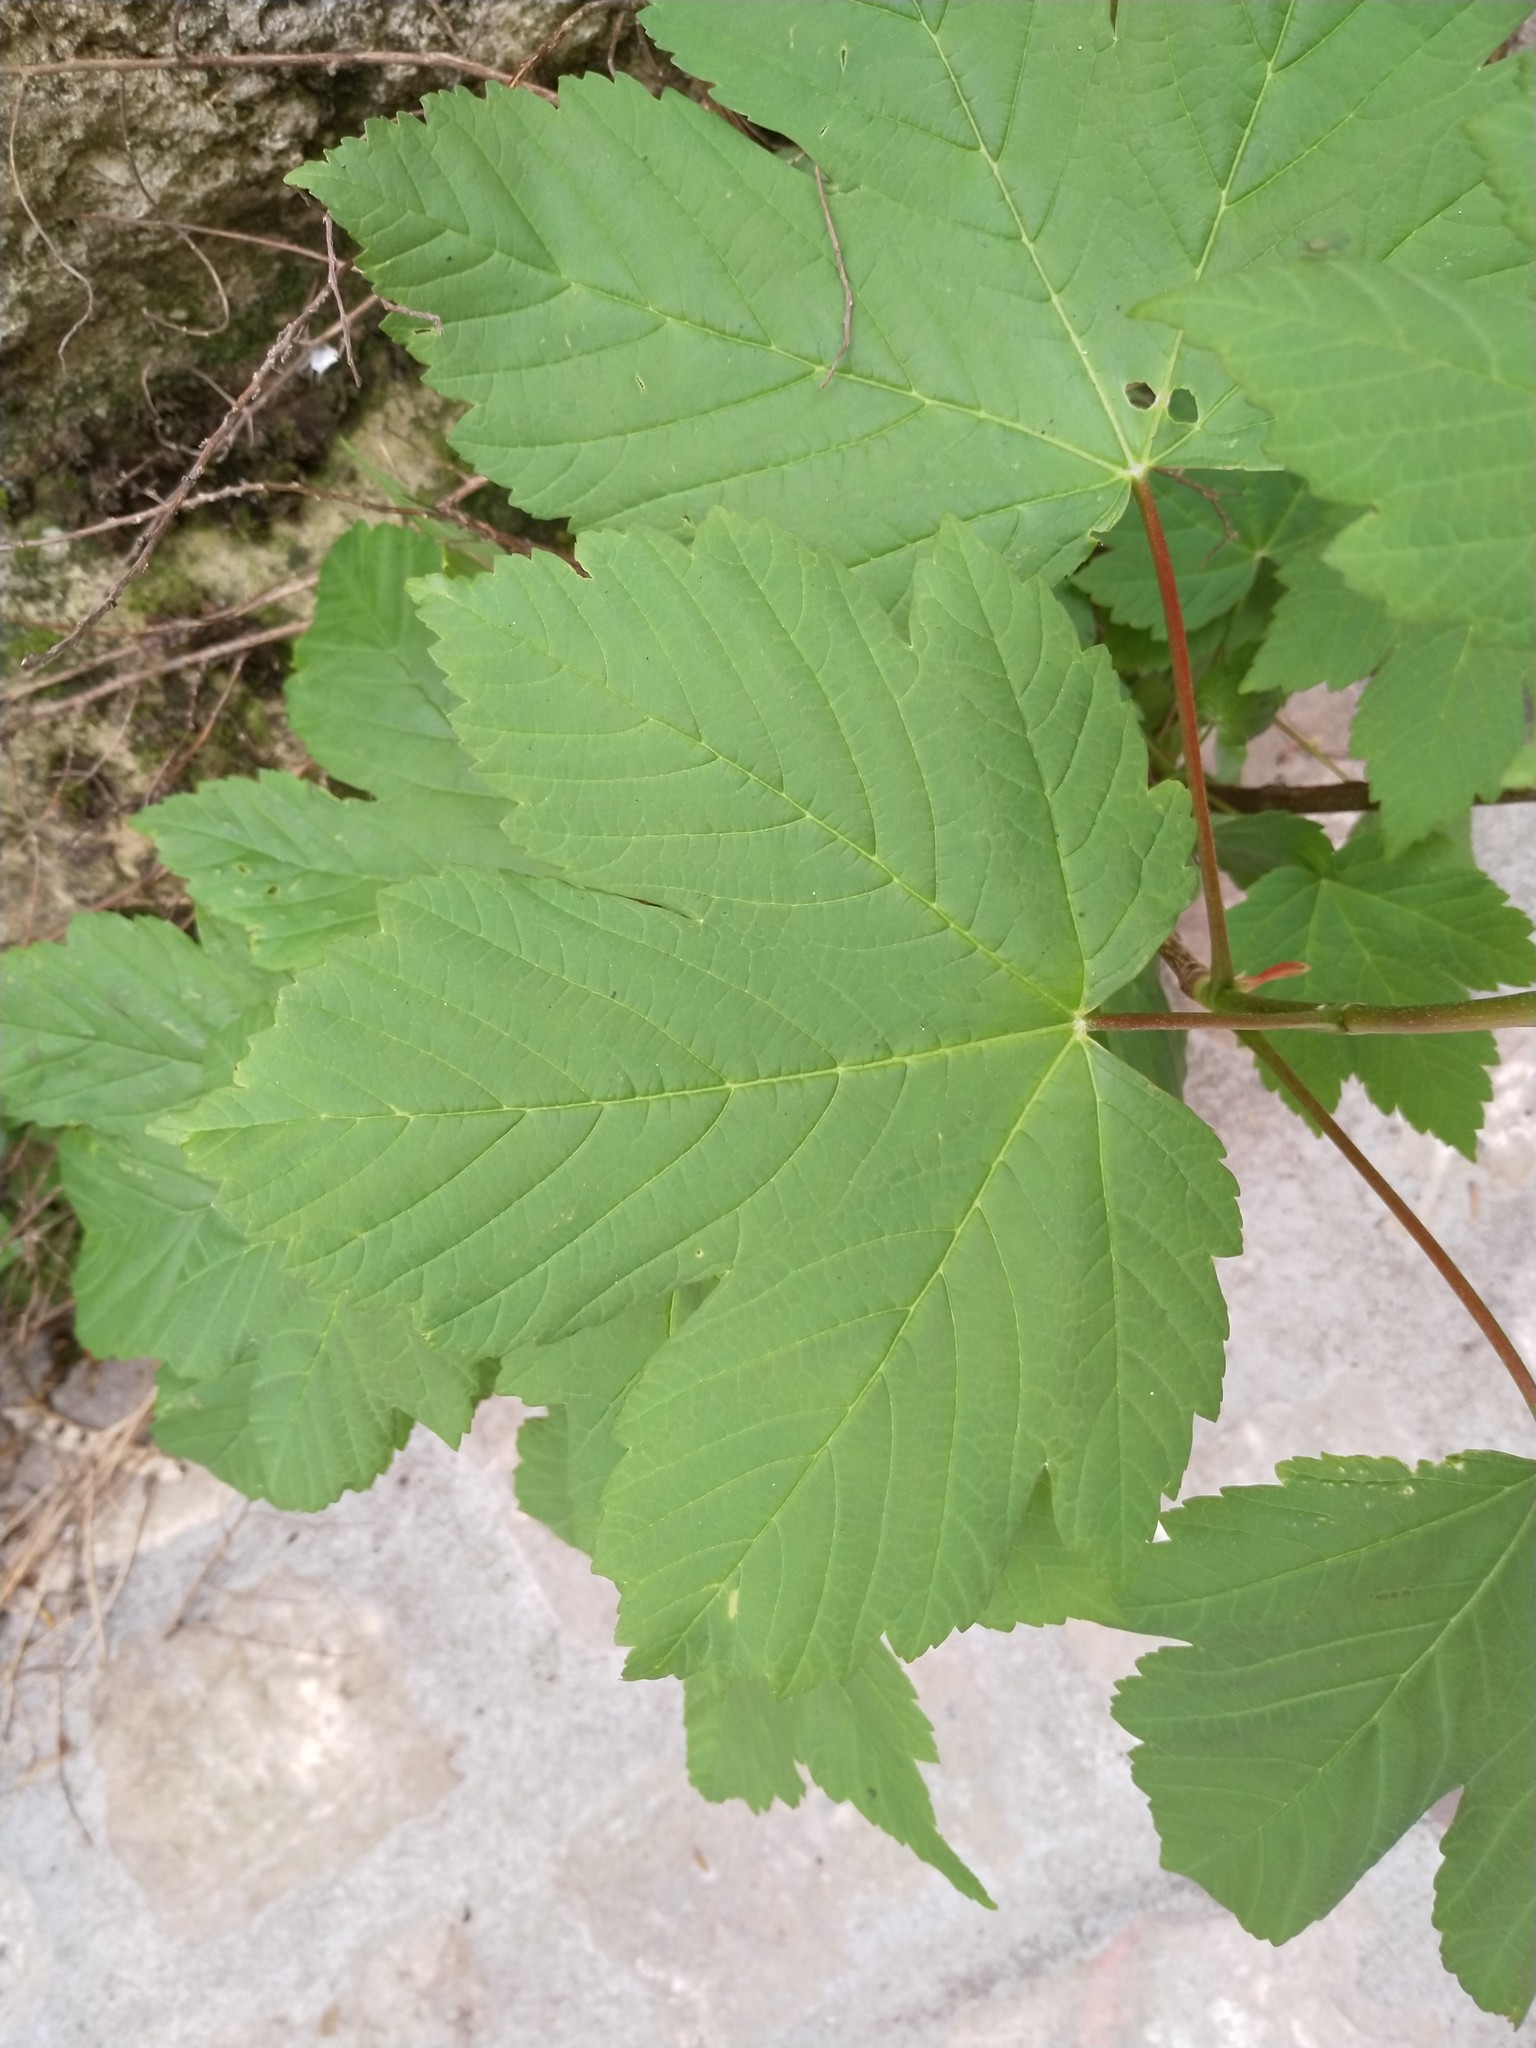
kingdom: Plantae
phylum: Tracheophyta
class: Magnoliopsida
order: Sapindales
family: Sapindaceae
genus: Acer
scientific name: Acer pseudoplatanus
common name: Sycamore
